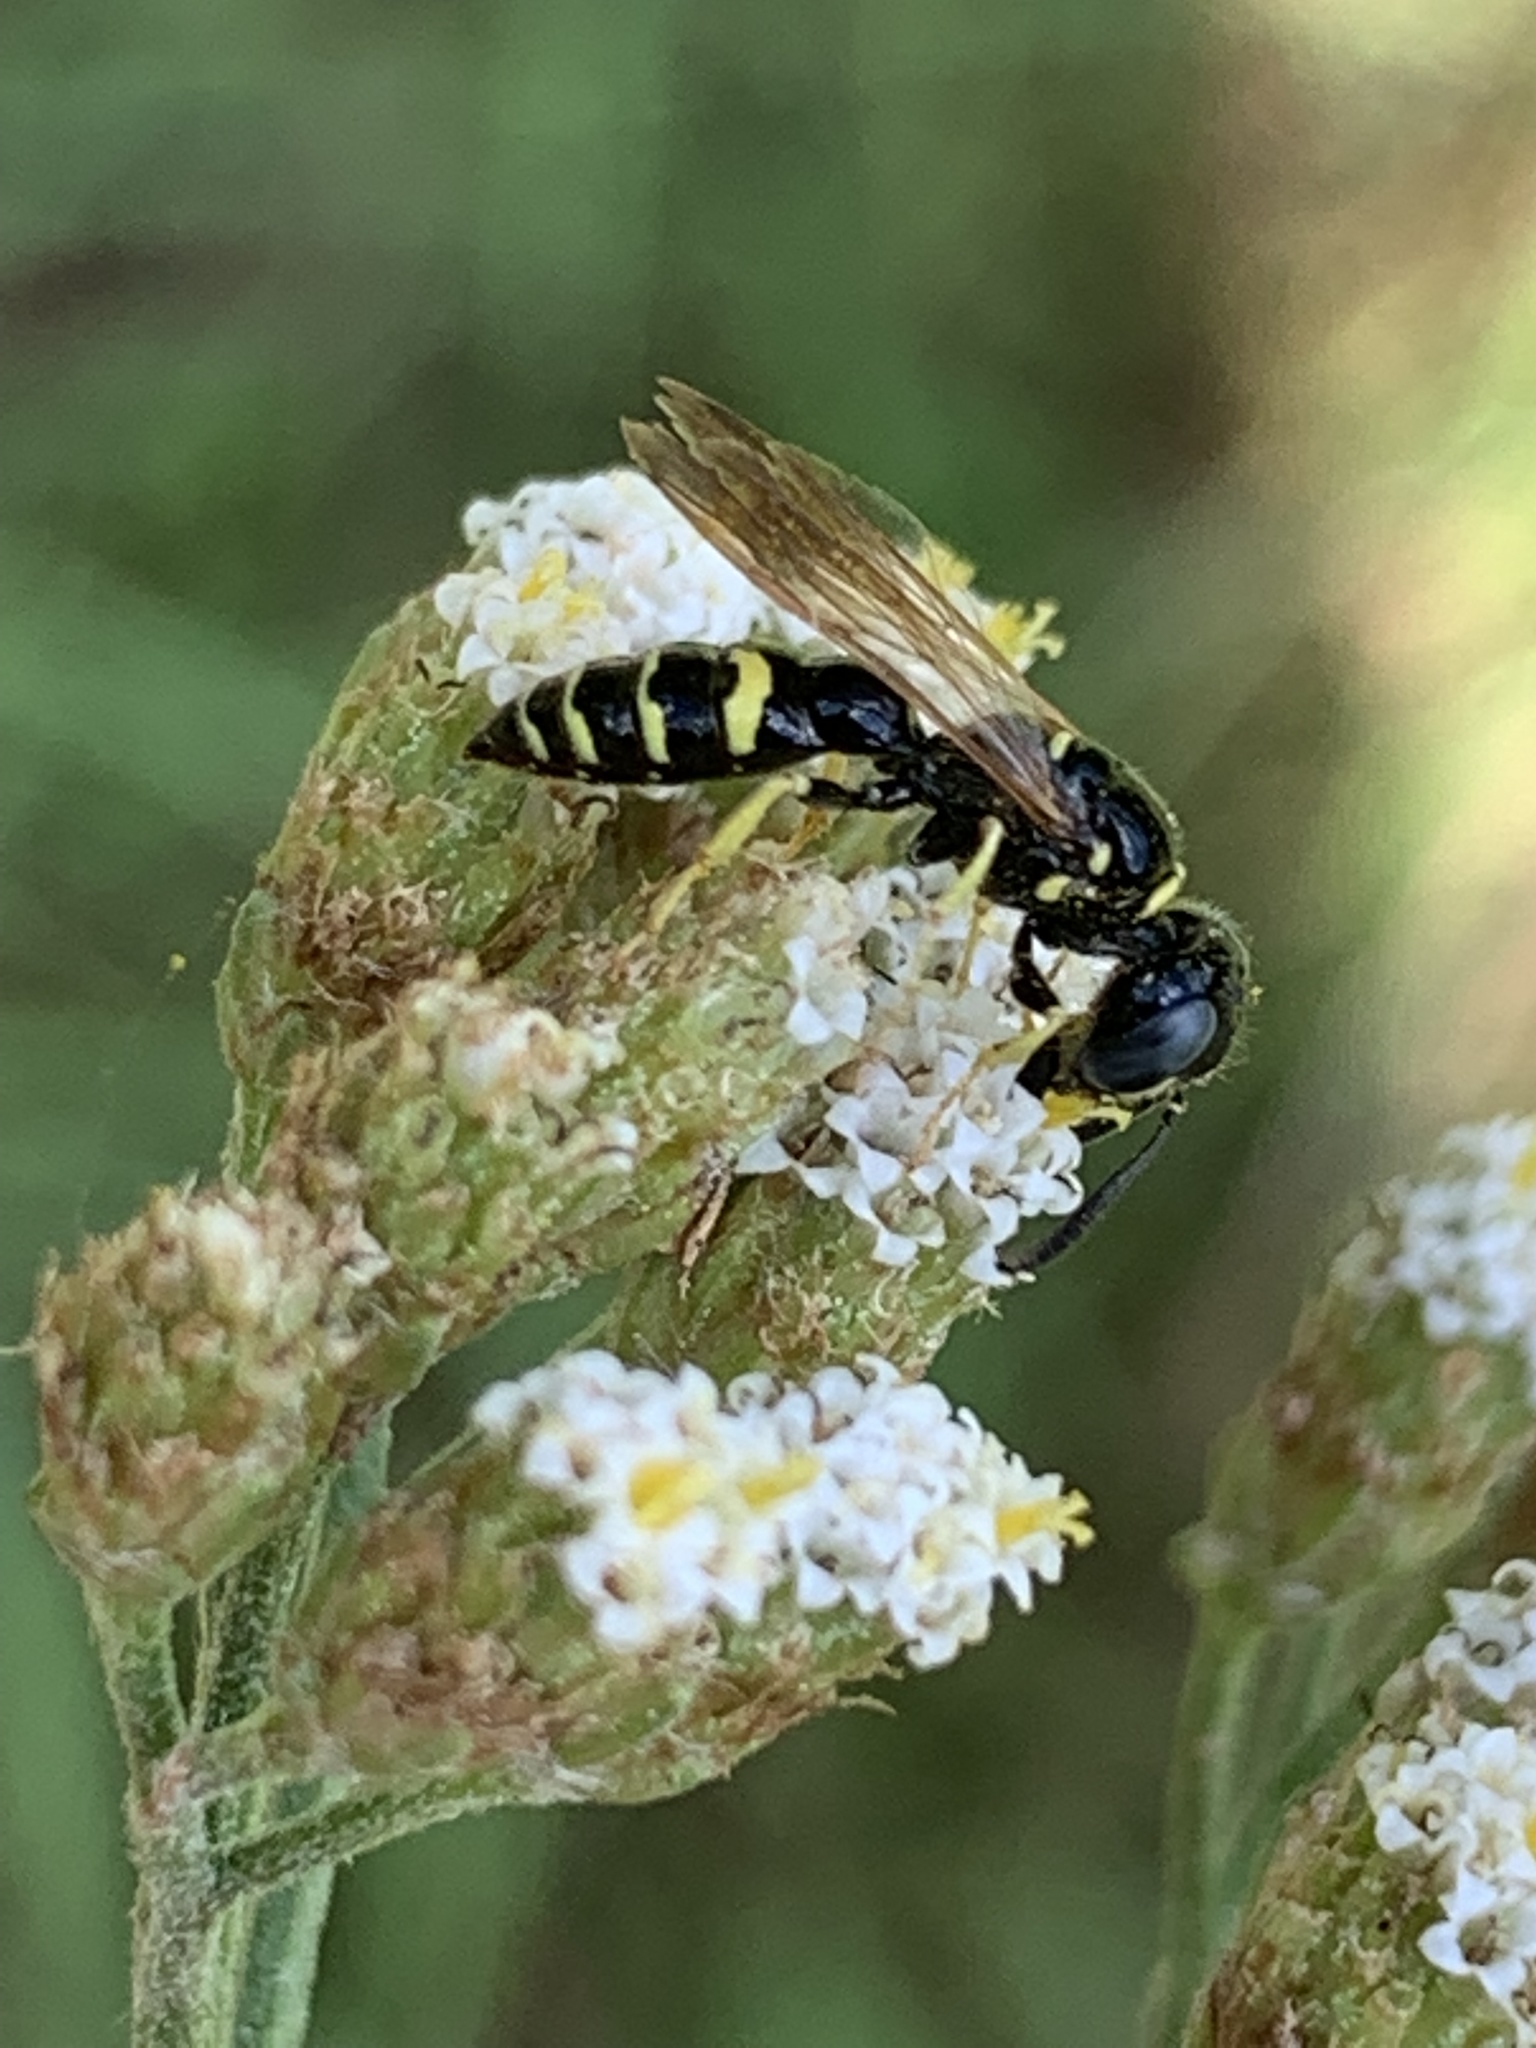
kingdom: Animalia
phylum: Arthropoda
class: Insecta
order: Hymenoptera
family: Crabronidae
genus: Philanthus
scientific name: Philanthus bilunatus
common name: Two moons beewolf
